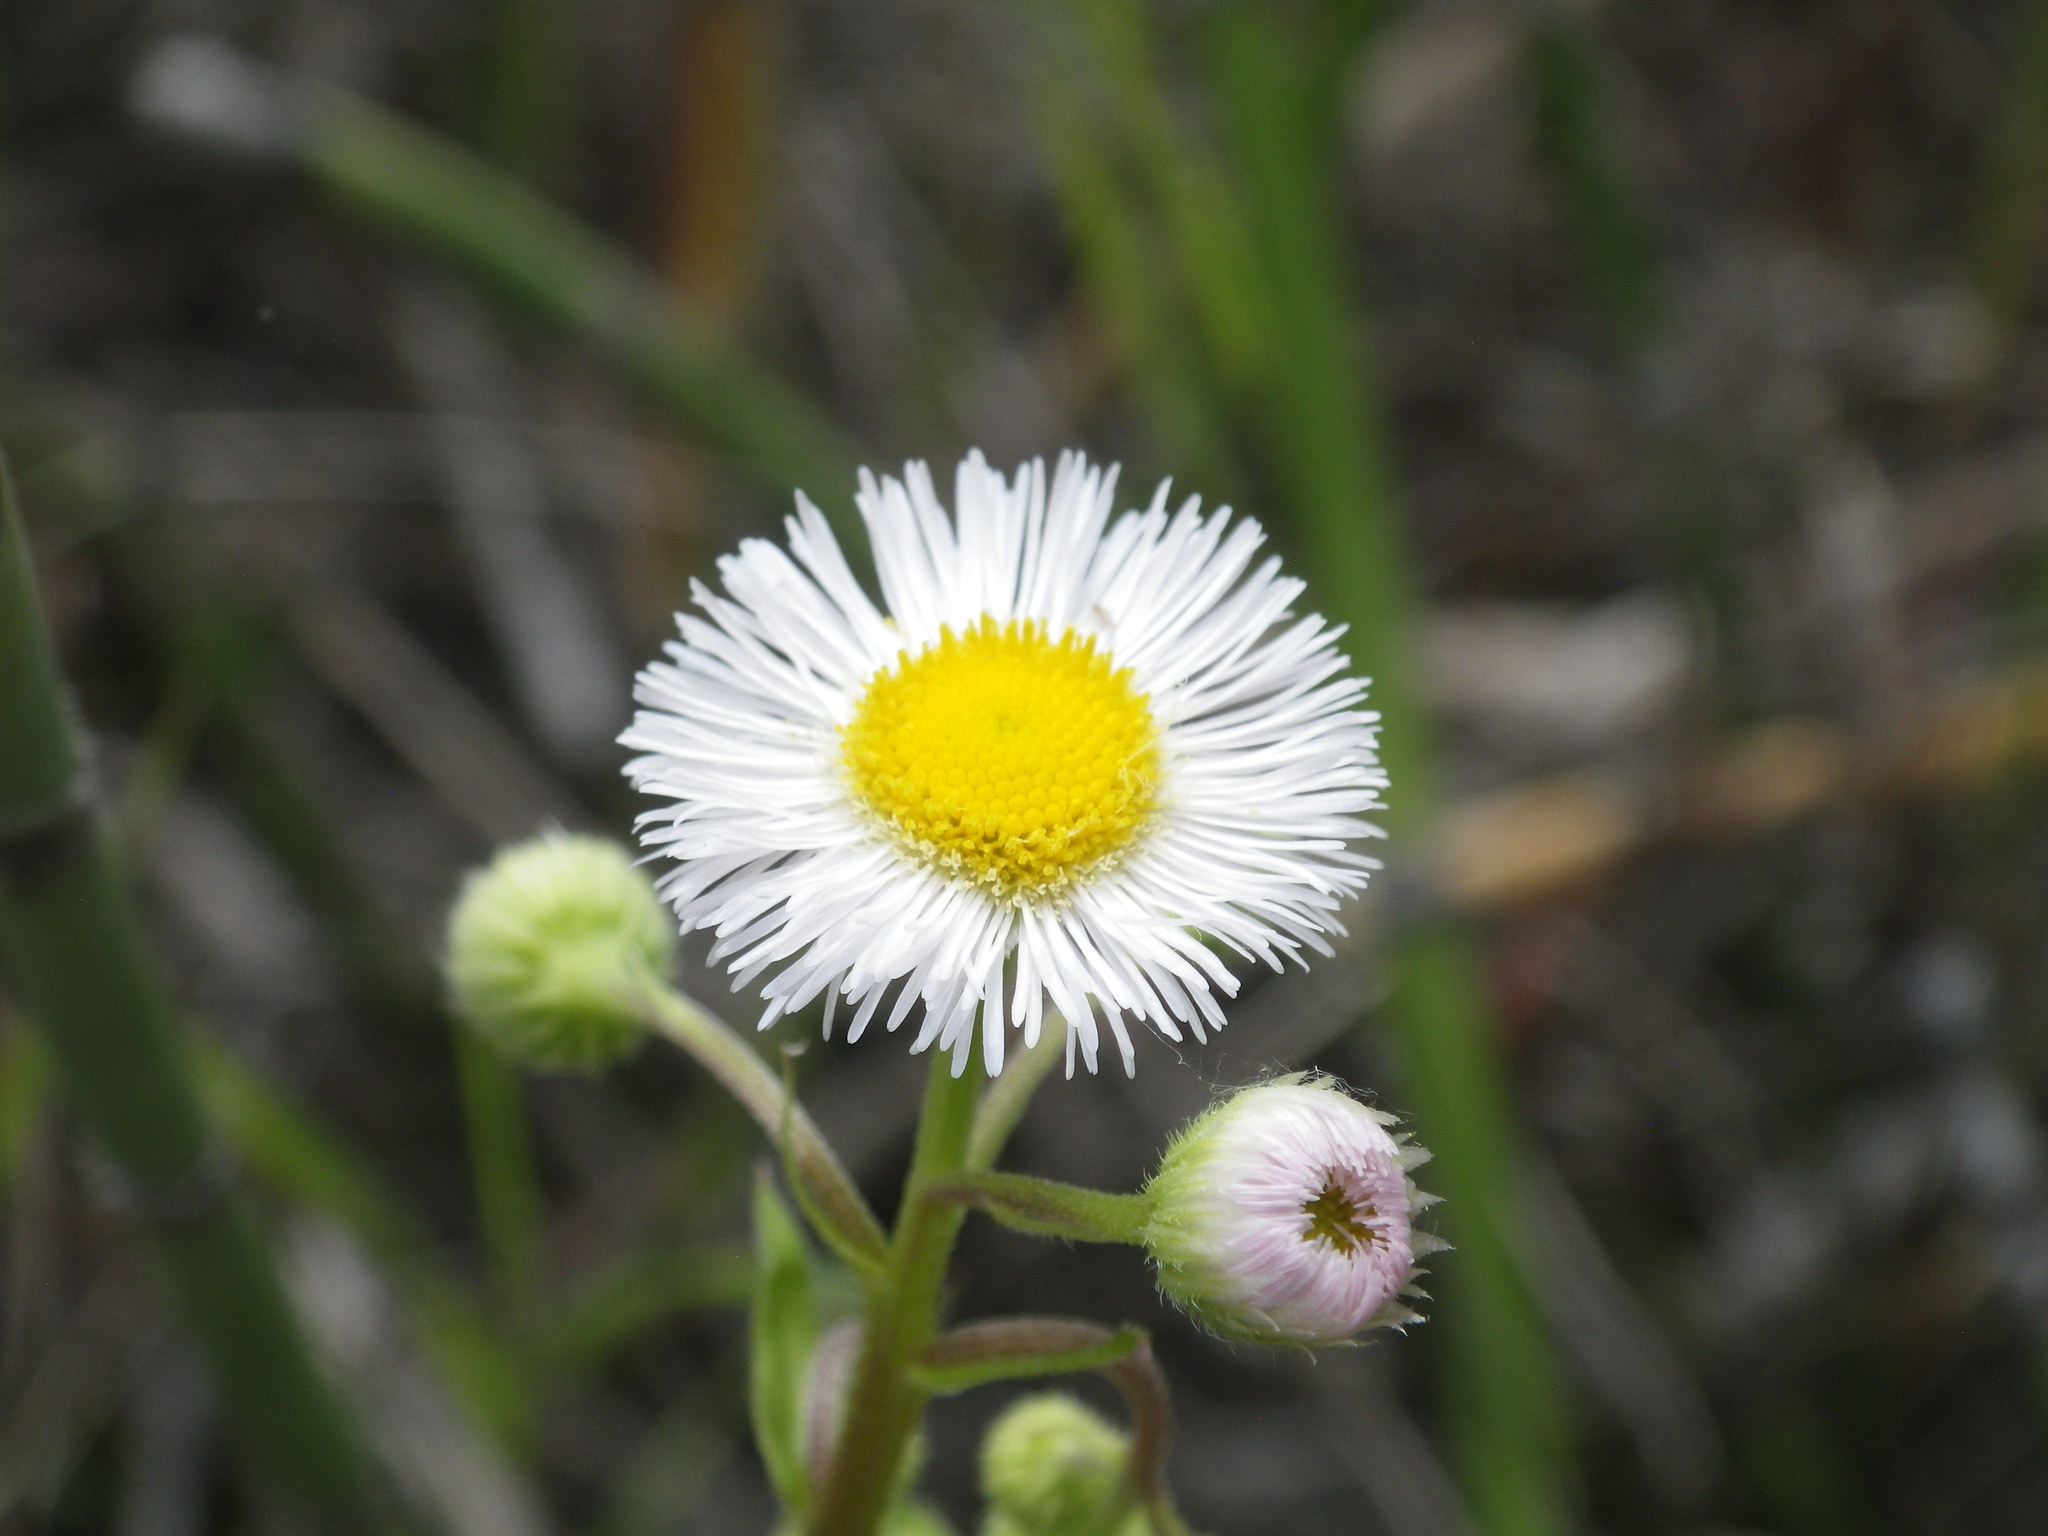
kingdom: Plantae
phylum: Tracheophyta
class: Magnoliopsida
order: Asterales
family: Asteraceae
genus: Erigeron
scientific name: Erigeron acris
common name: Blue fleabane
